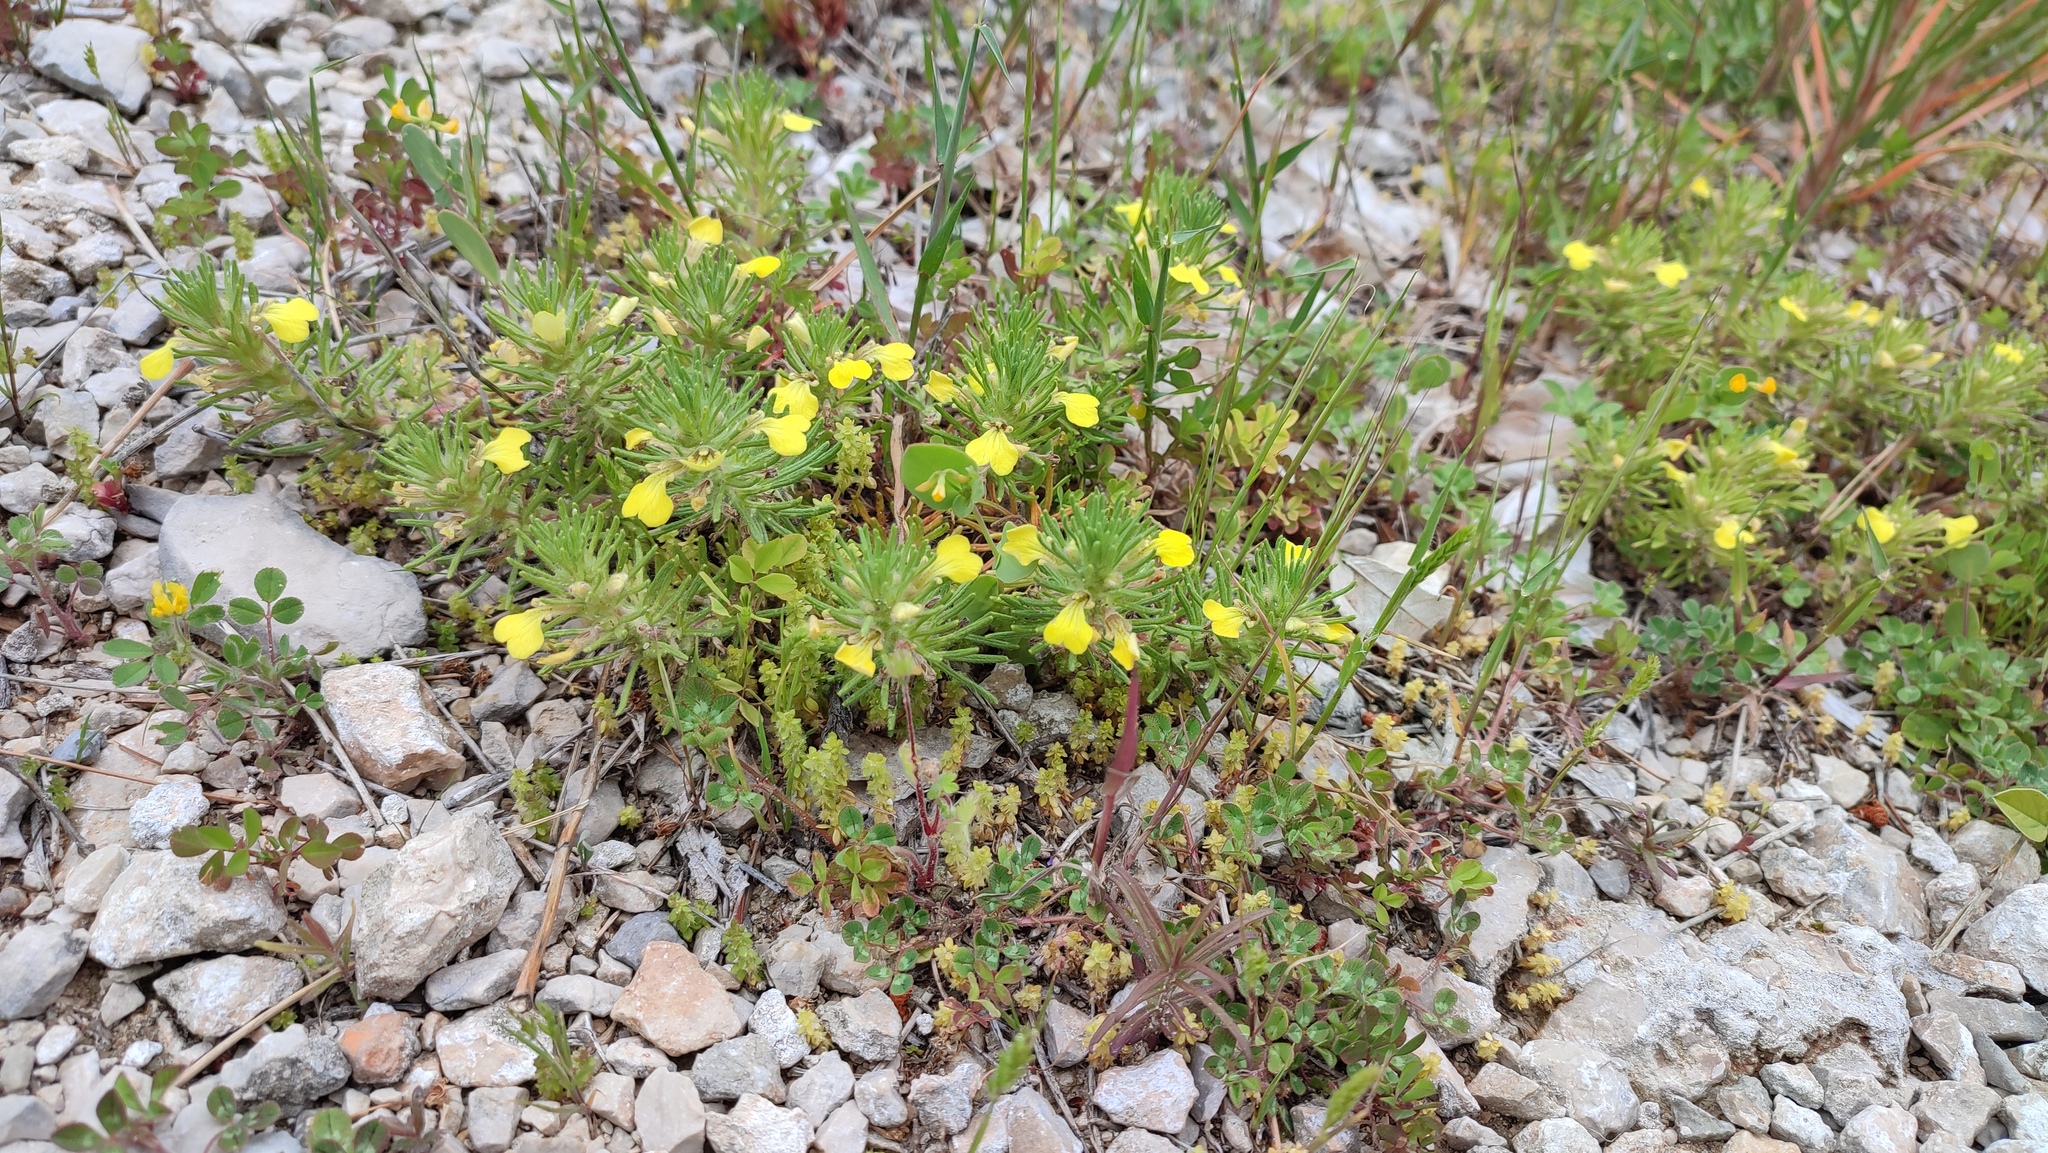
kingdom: Plantae
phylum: Tracheophyta
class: Magnoliopsida
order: Lamiales
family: Lamiaceae
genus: Ajuga
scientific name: Ajuga chamaepitys
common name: Ground-pine
